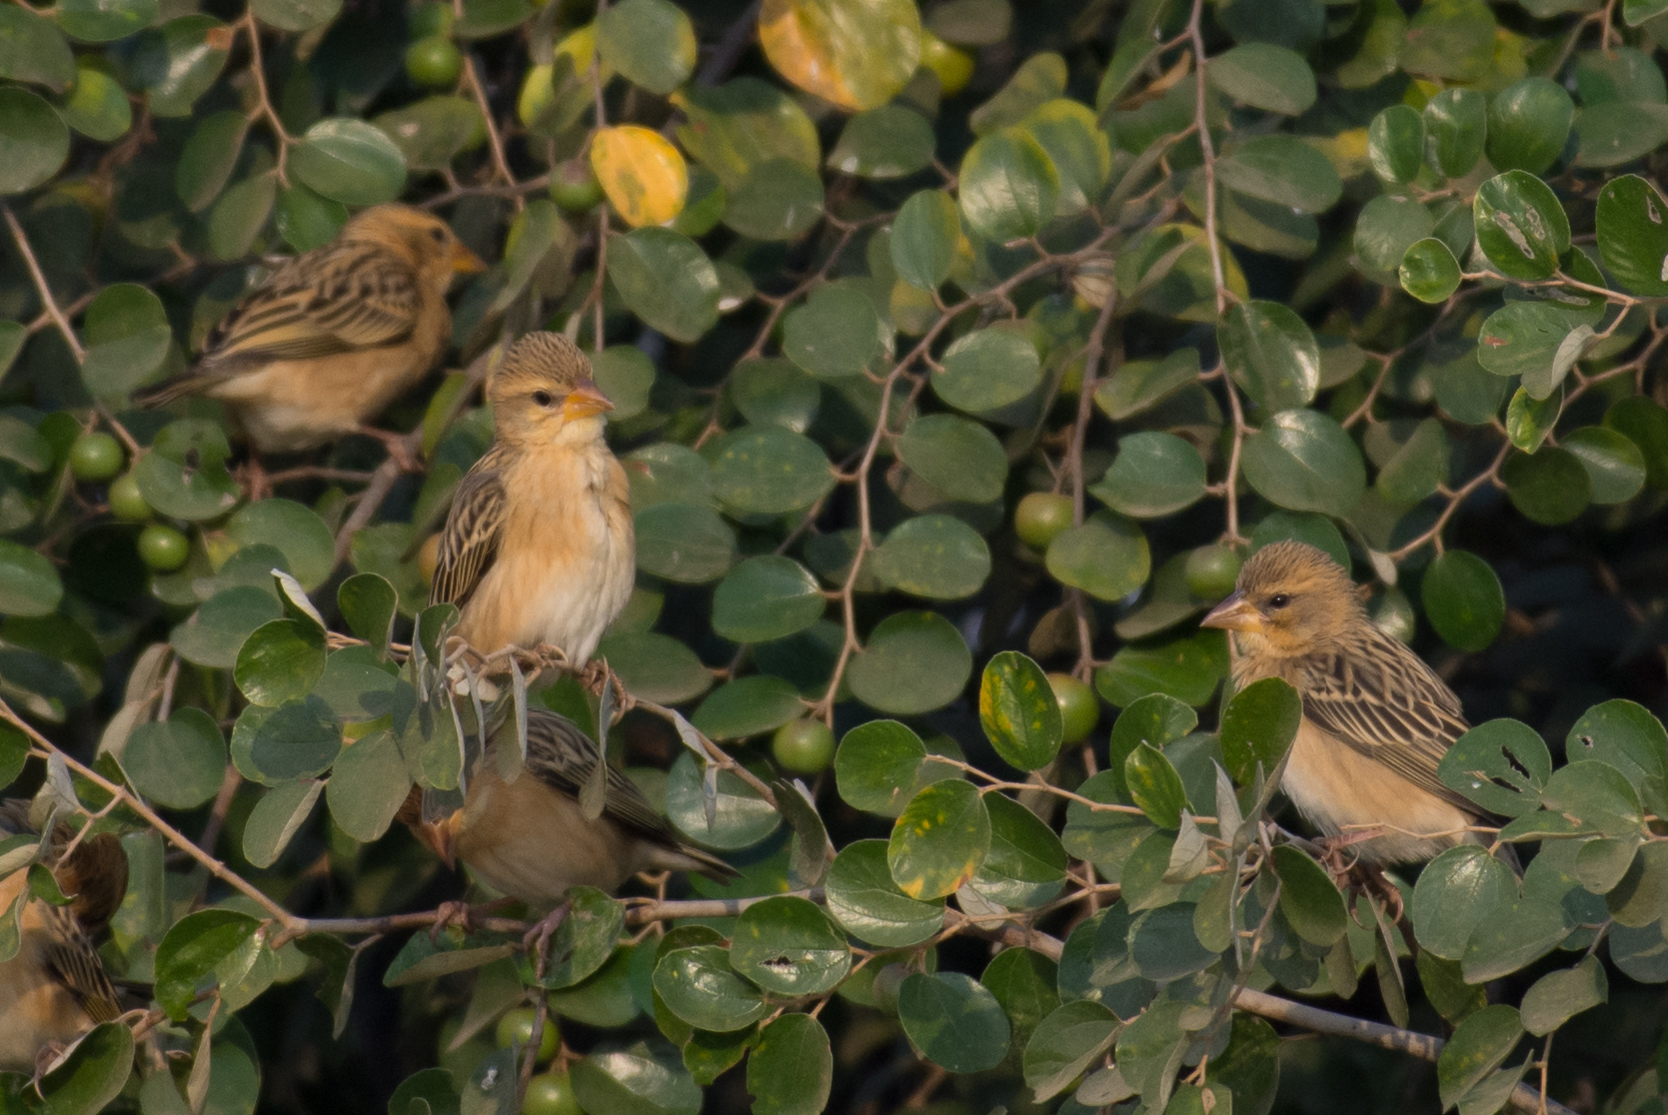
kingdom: Animalia
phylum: Chordata
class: Aves
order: Passeriformes
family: Ploceidae
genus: Ploceus
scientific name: Ploceus manyar
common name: Streaked weaver
